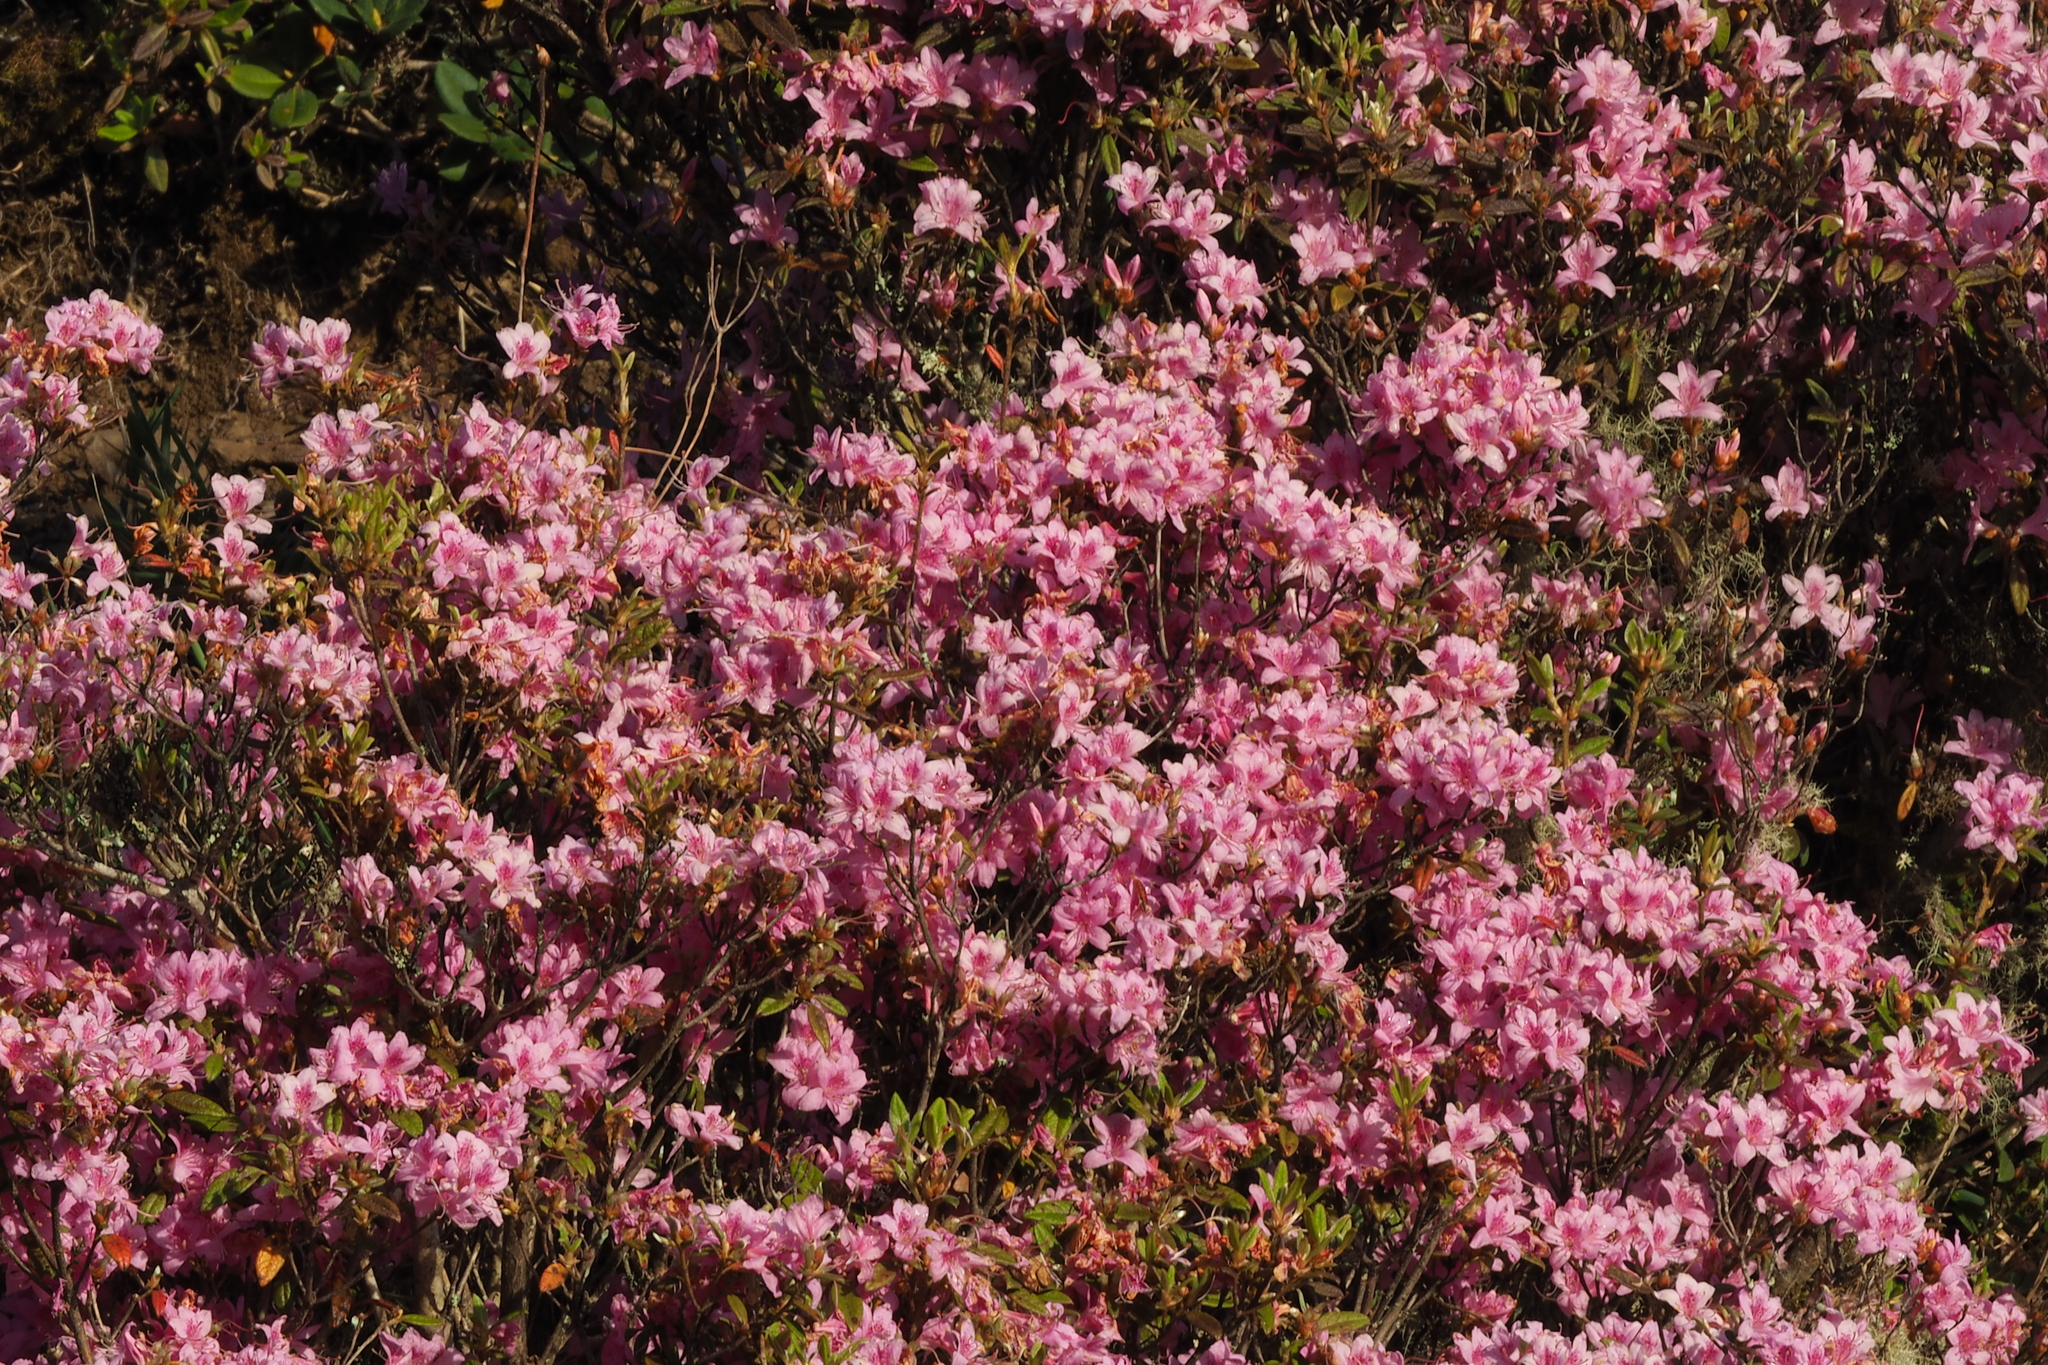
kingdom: Plantae
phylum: Tracheophyta
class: Magnoliopsida
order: Ericales
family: Ericaceae
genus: Rhododendron
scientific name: Rhododendron rubropilosum
